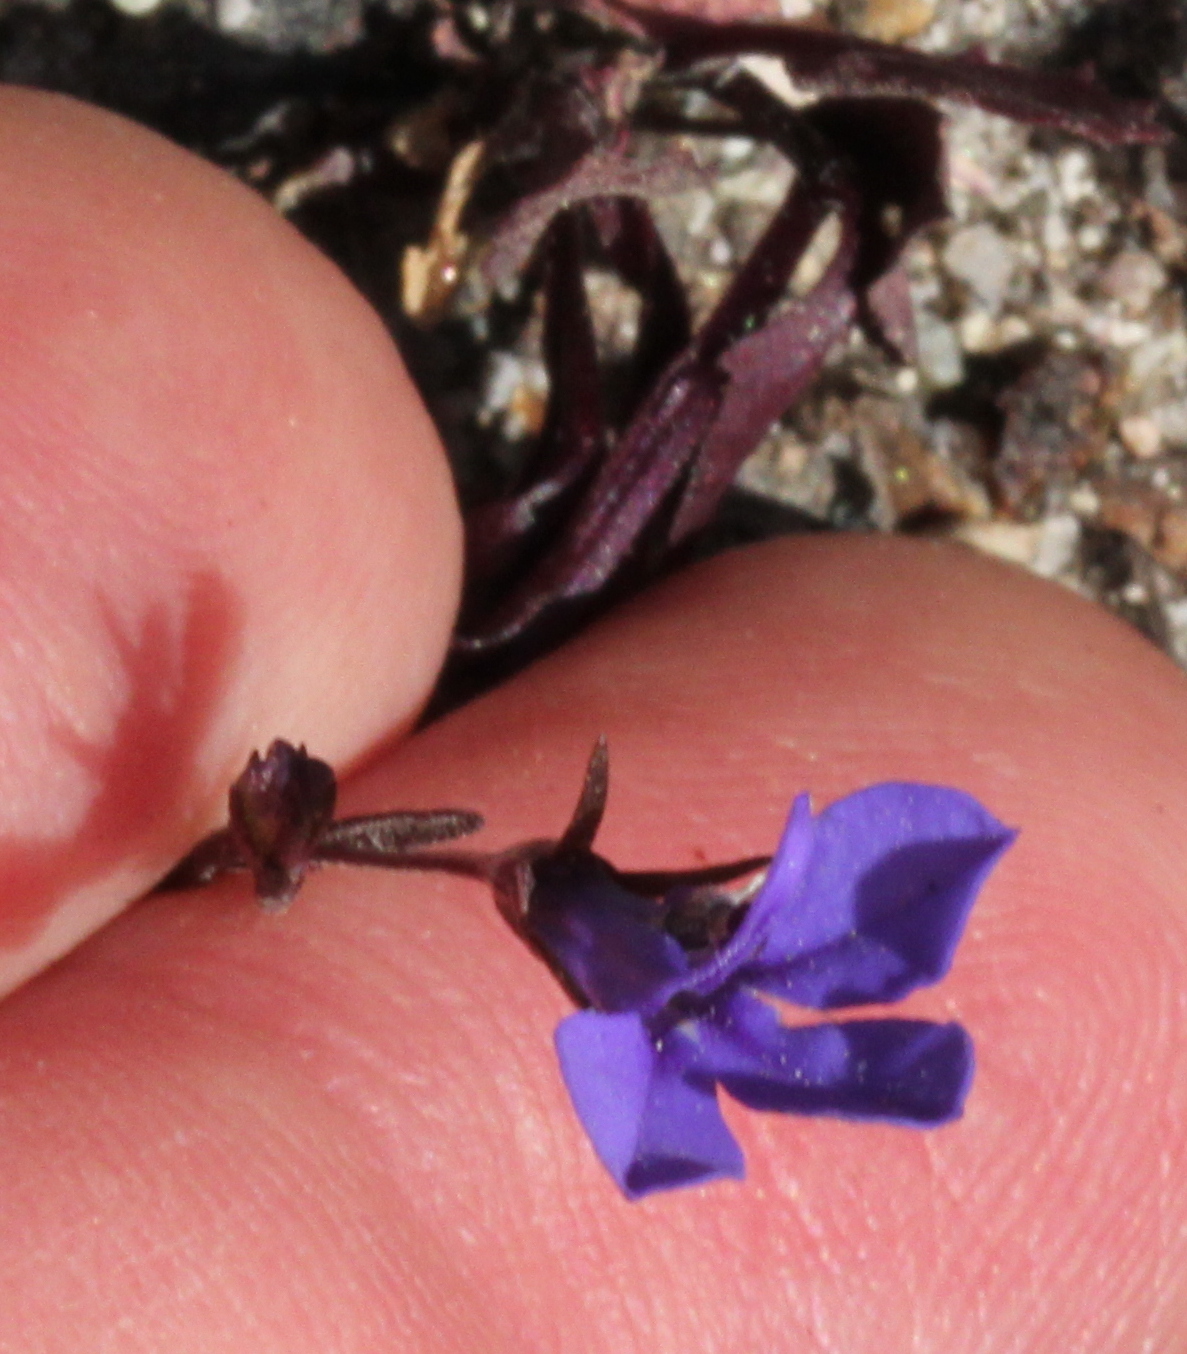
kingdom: Plantae
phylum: Tracheophyta
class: Magnoliopsida
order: Asterales
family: Campanulaceae
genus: Lobelia
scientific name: Lobelia erinus
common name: Edging lobelia
